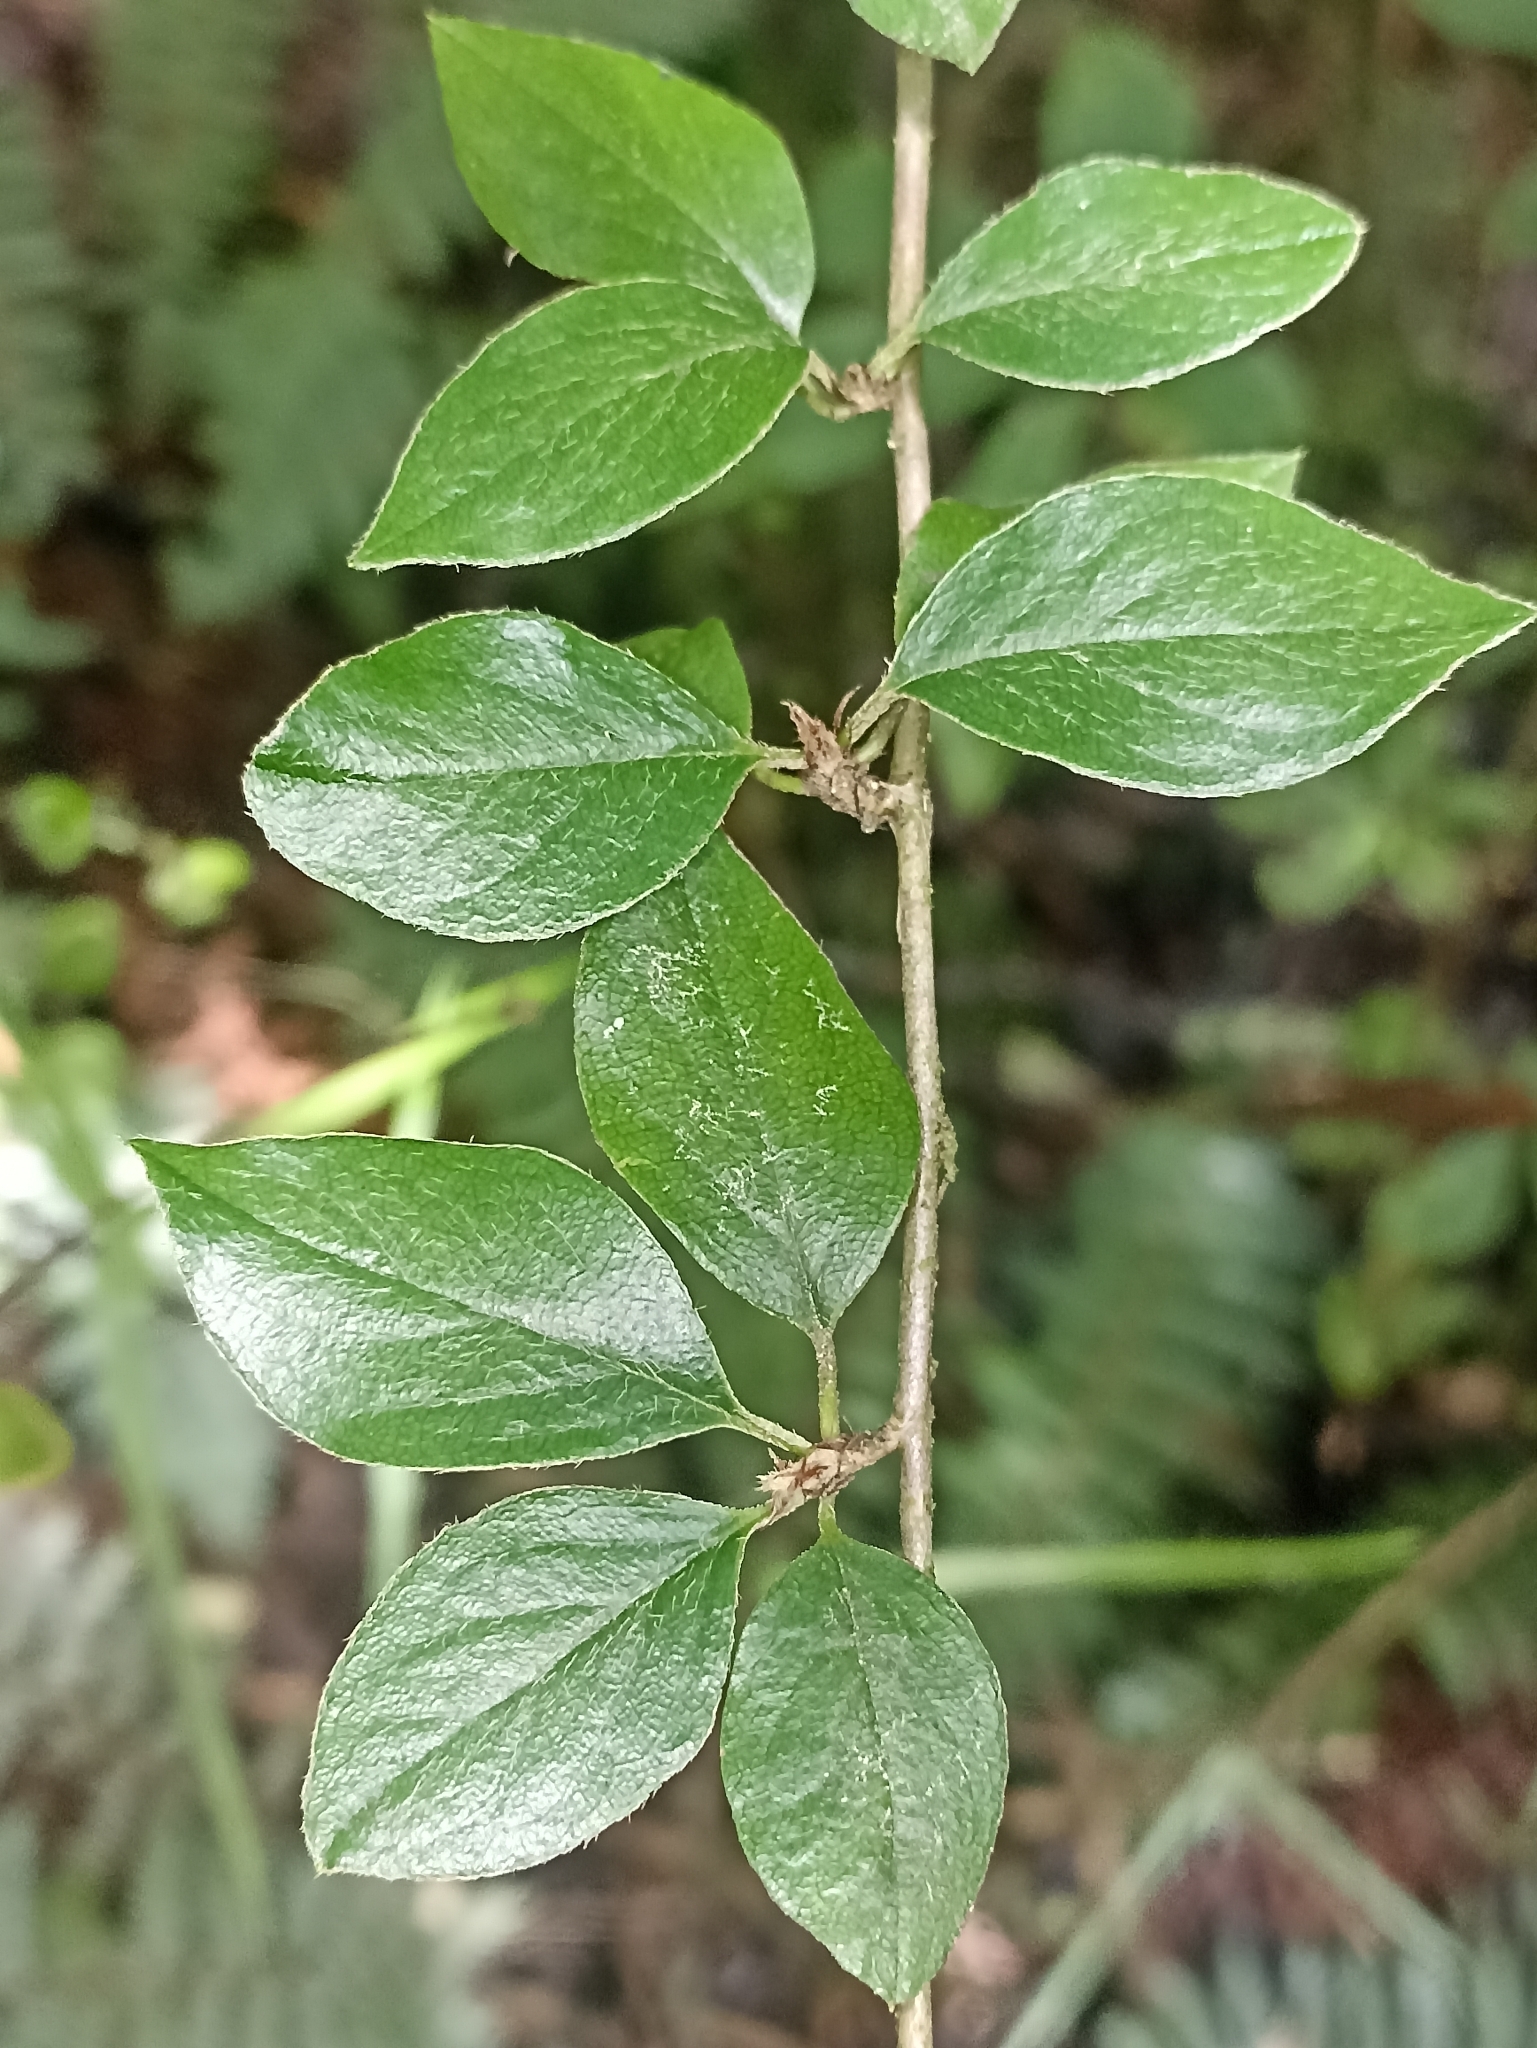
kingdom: Plantae
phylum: Tracheophyta
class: Magnoliopsida
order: Rosales
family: Rosaceae
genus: Cotoneaster
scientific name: Cotoneaster simonsii
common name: Himalayan cotoneaster
